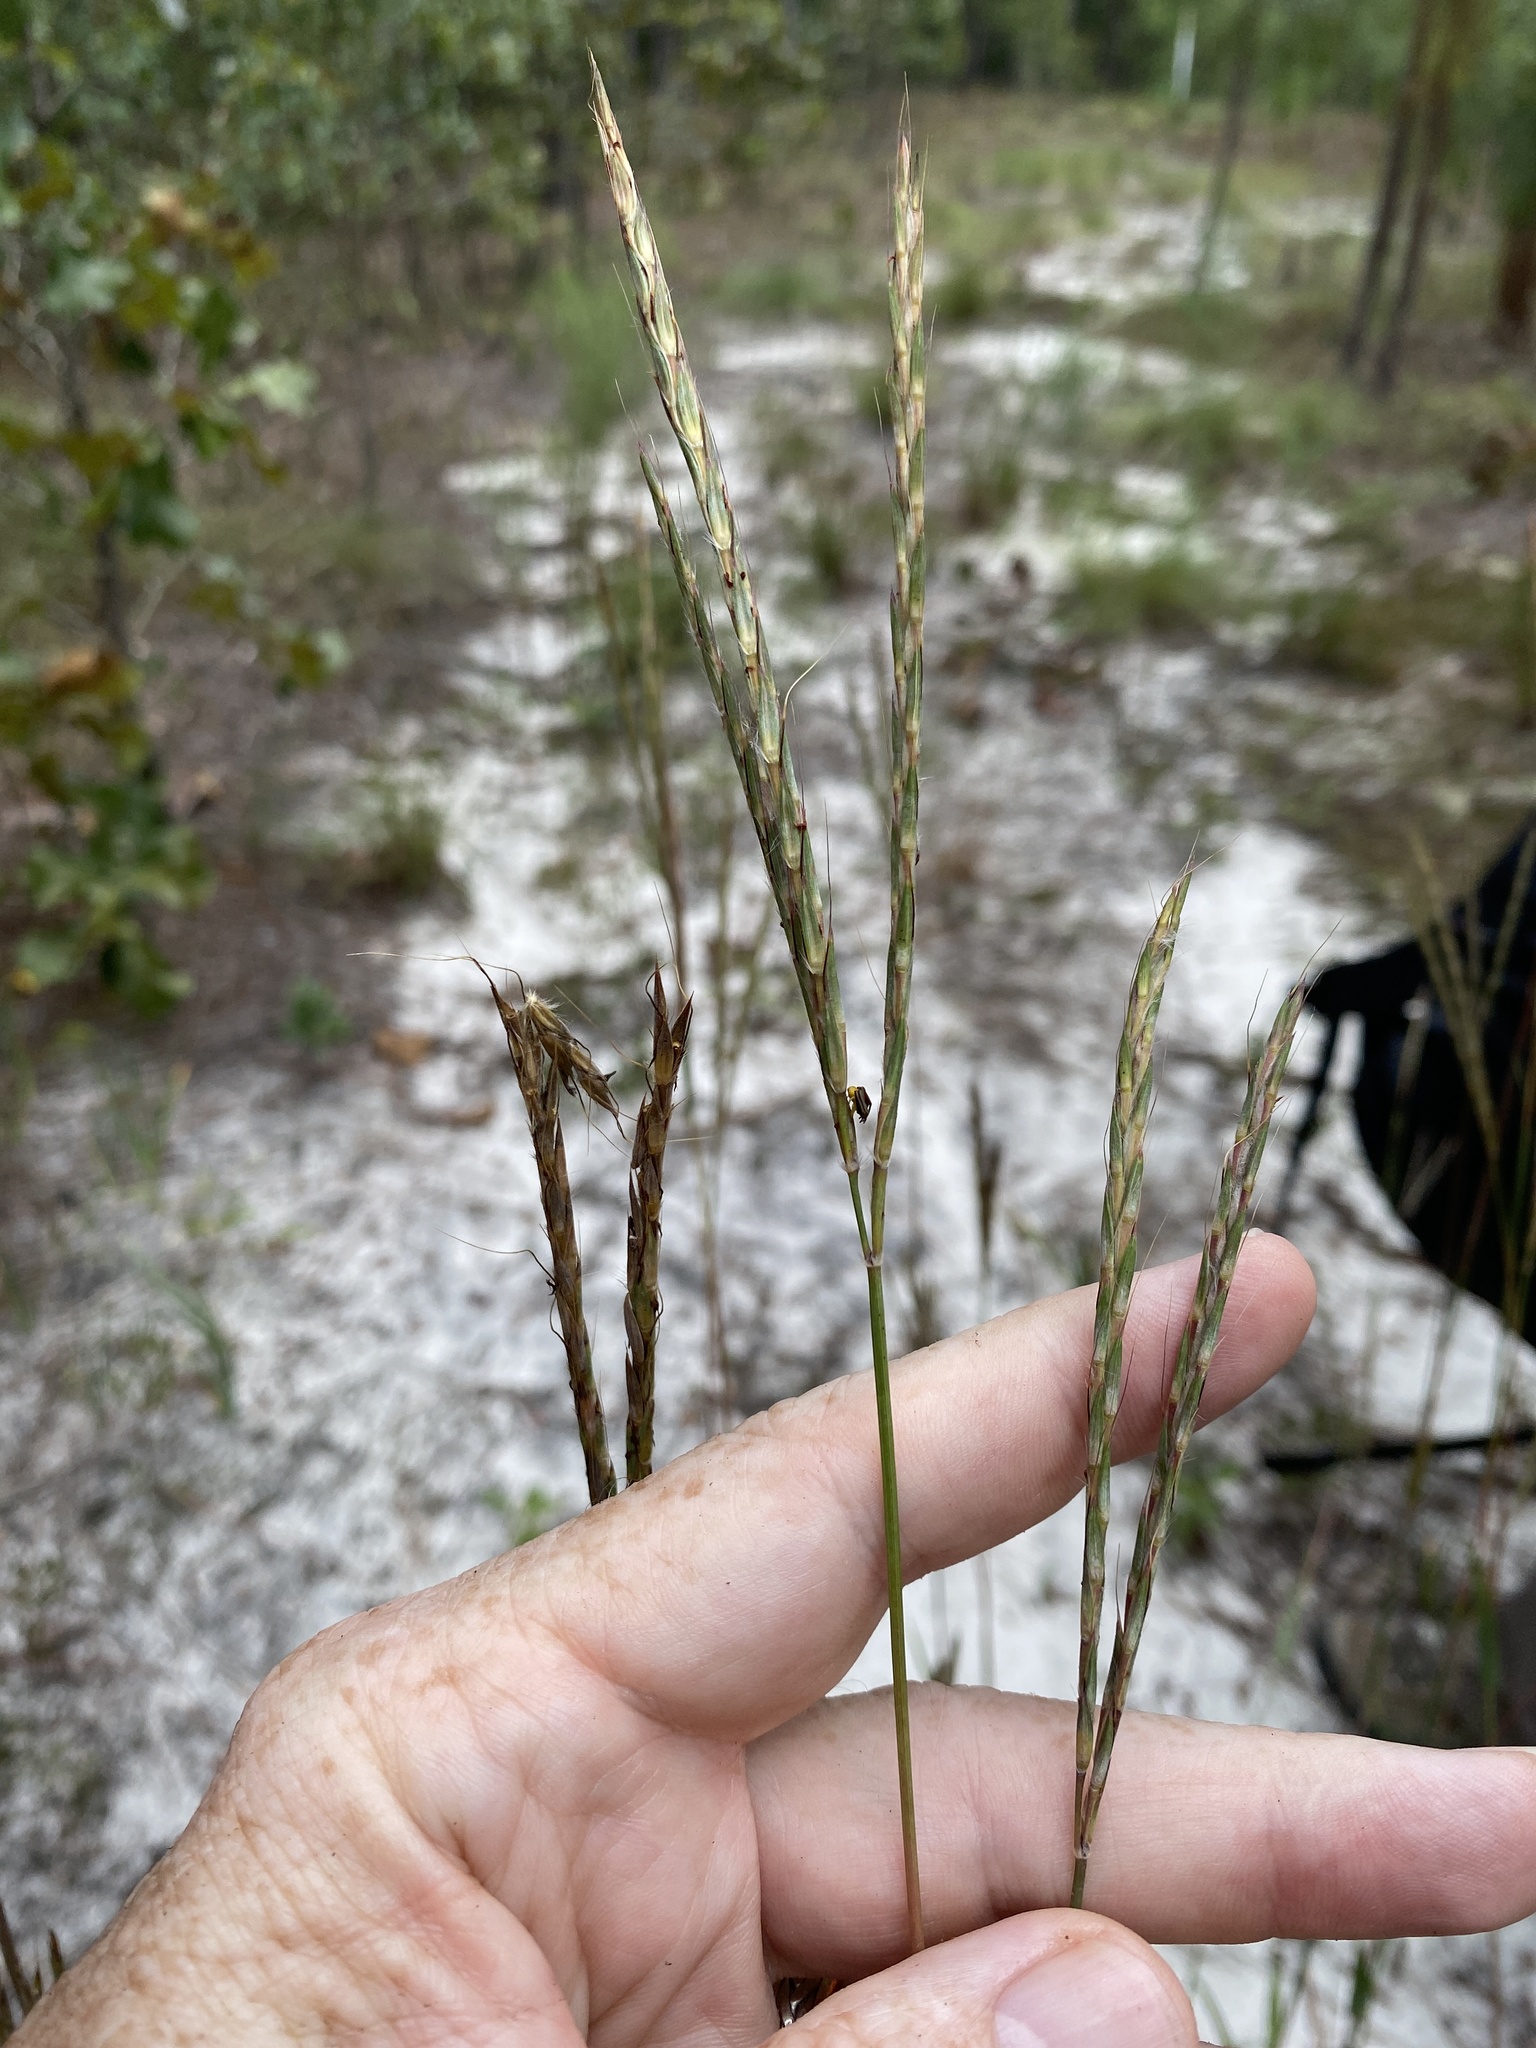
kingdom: Plantae
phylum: Tracheophyta
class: Liliopsida
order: Poales
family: Poaceae
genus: Andropogon
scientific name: Andropogon gerardi
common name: Big bluestem
